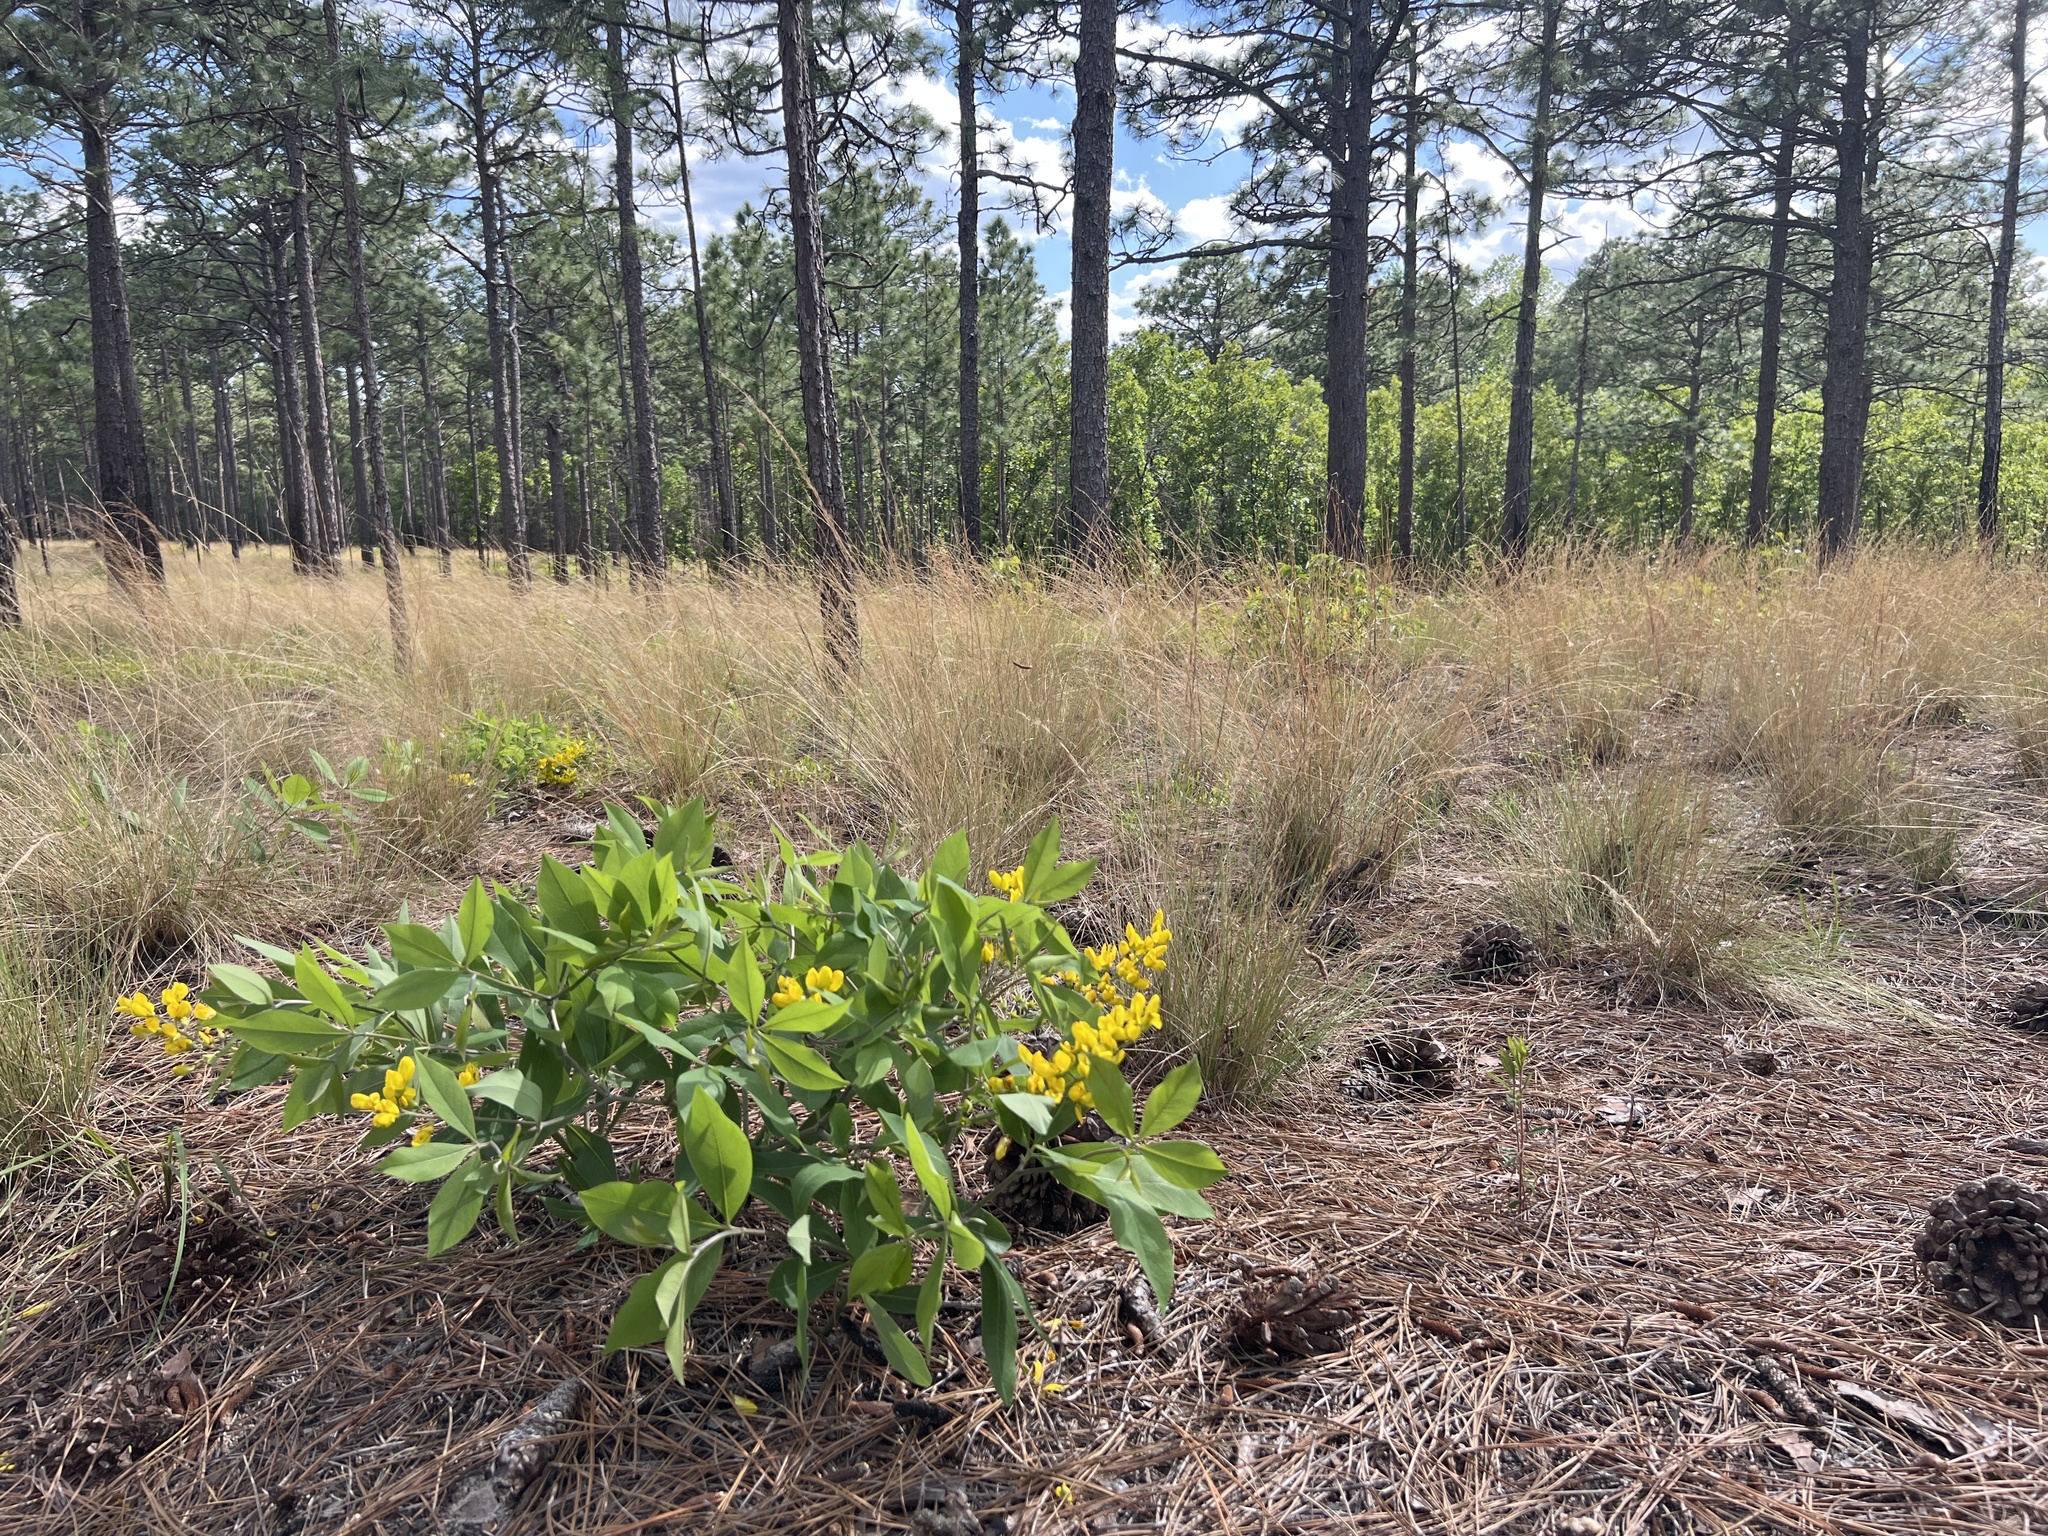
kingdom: Plantae
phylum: Tracheophyta
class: Magnoliopsida
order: Fabales
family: Fabaceae
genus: Baptisia
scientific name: Baptisia cinerea
